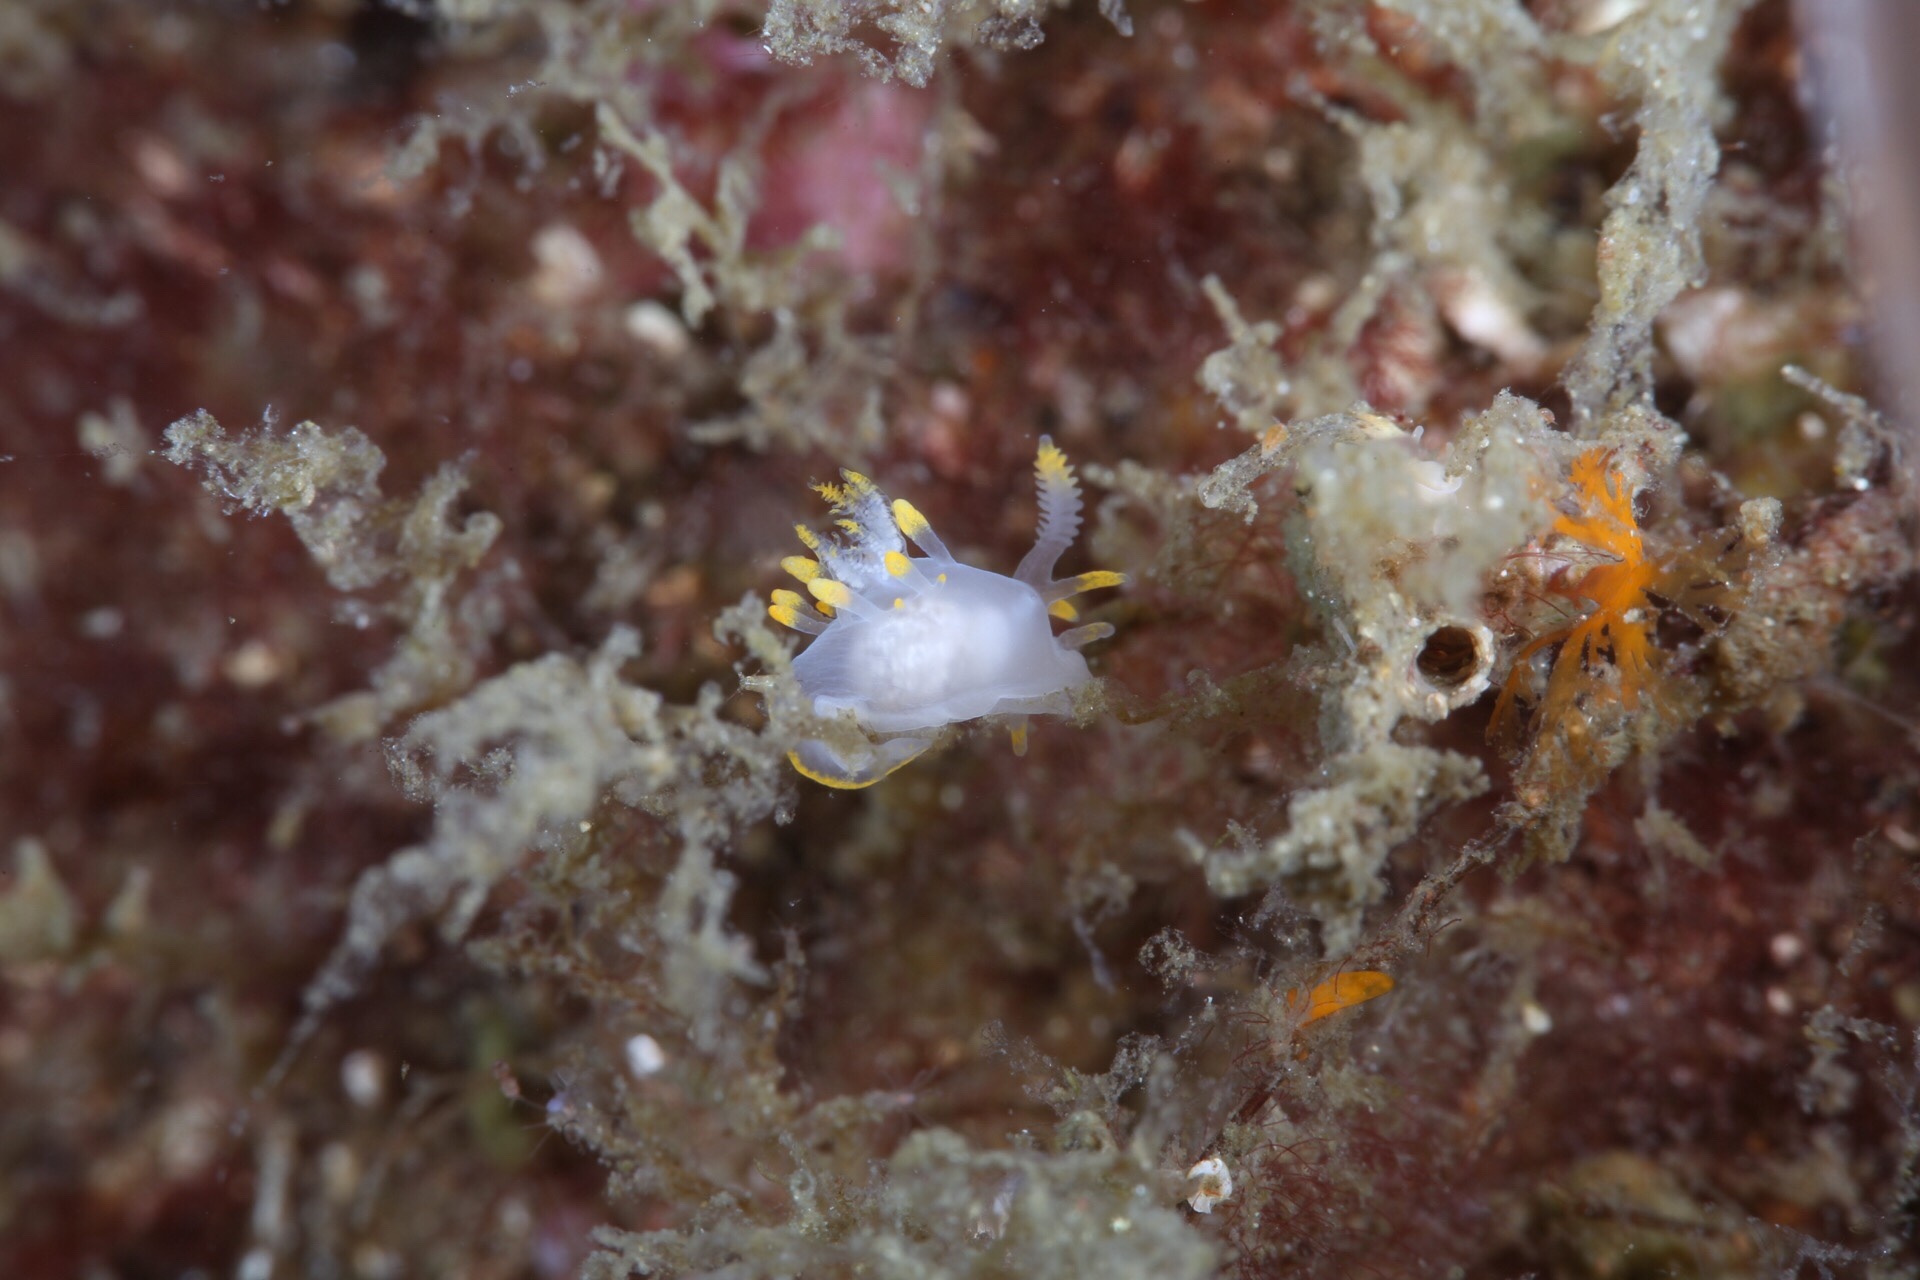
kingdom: Animalia
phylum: Mollusca
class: Gastropoda
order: Nudibranchia
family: Goniodorididae
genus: Ancula
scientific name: Ancula gibbosa
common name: Atlantic ancula
